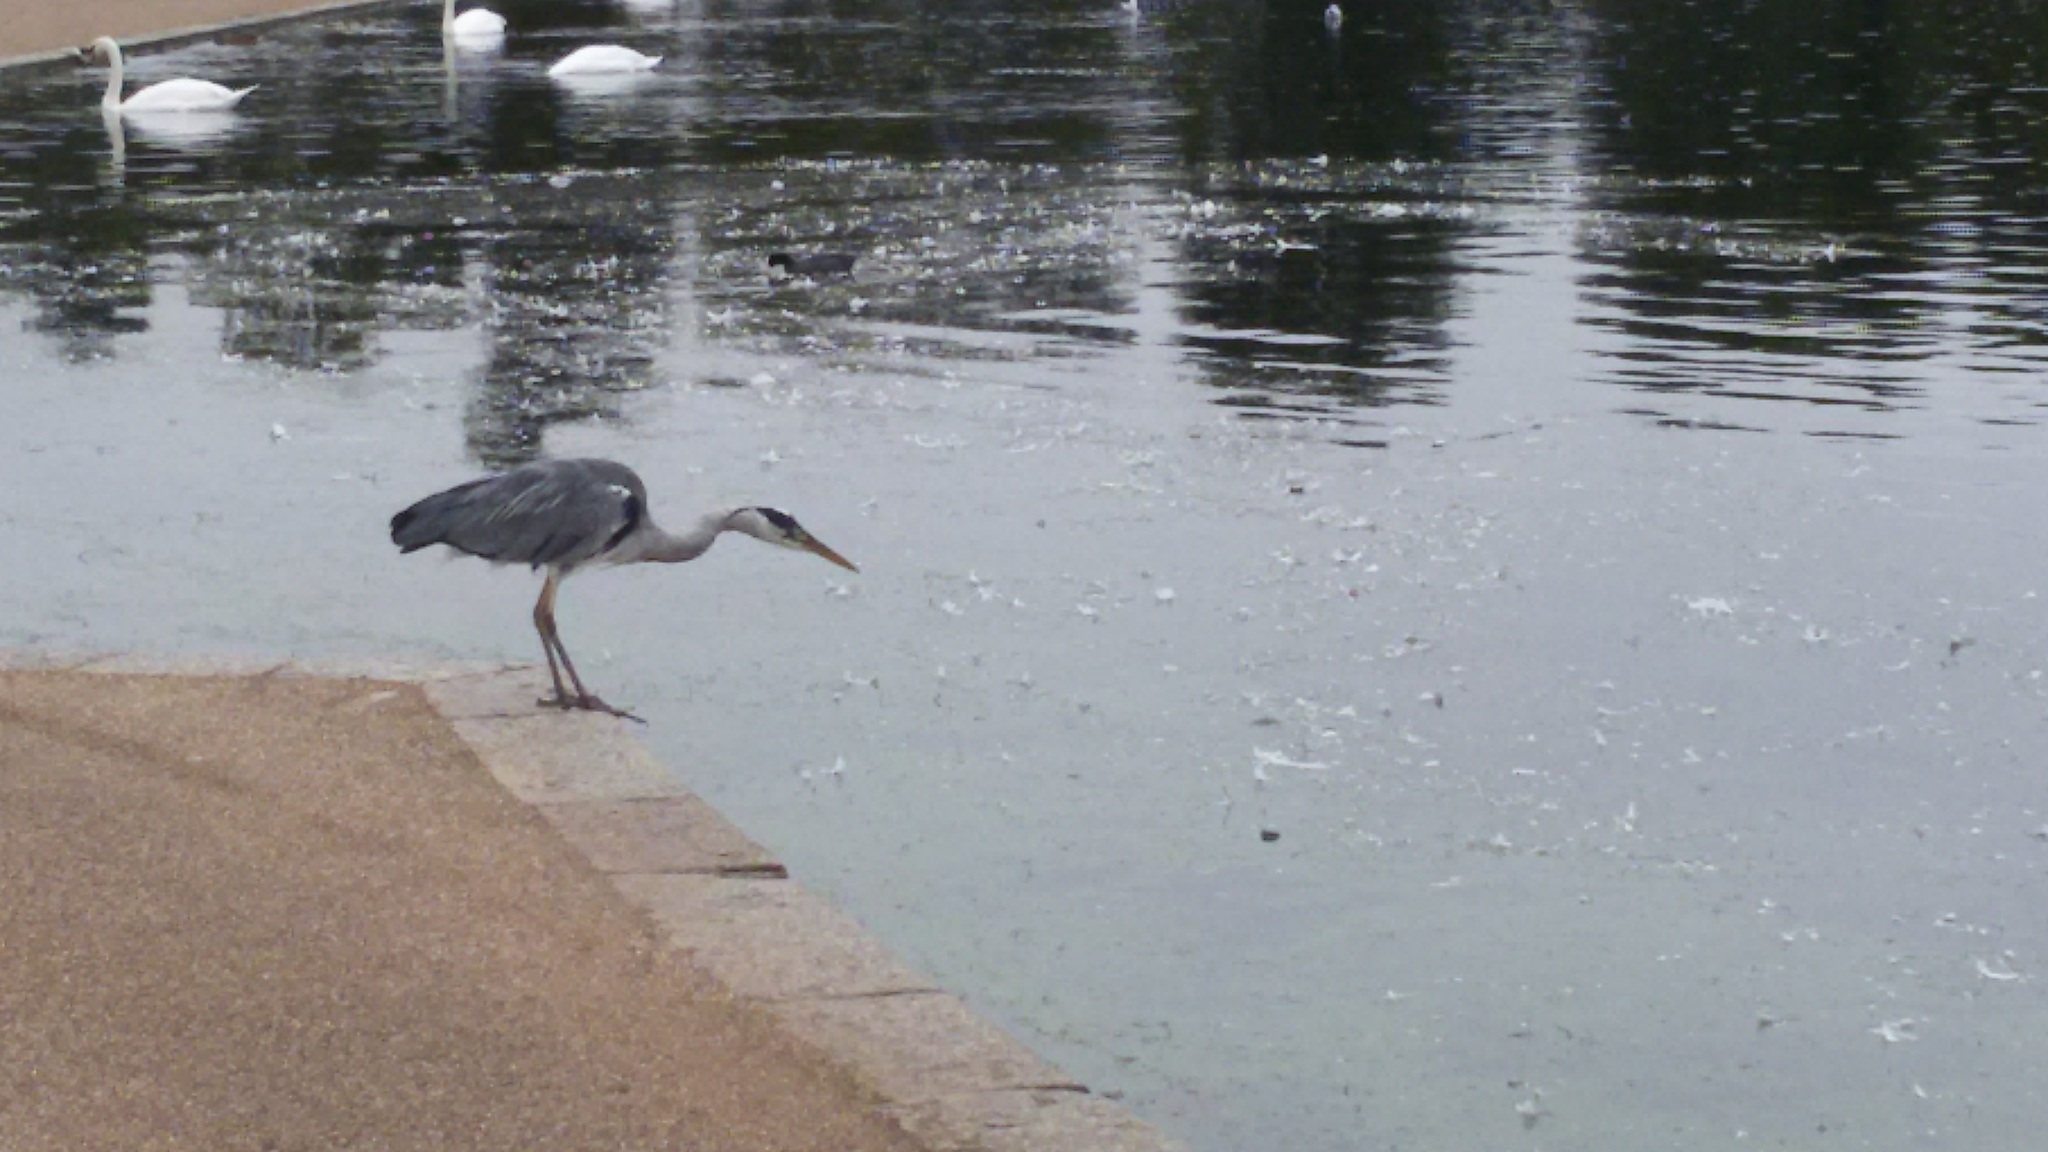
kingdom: Animalia
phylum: Chordata
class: Aves
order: Pelecaniformes
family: Ardeidae
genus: Ardea
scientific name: Ardea cinerea
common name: Grey heron
